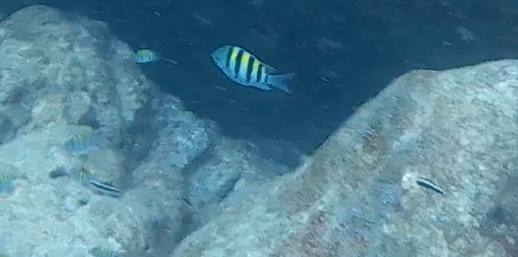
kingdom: Animalia
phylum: Chordata
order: Perciformes
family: Pomacentridae
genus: Abudefduf
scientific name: Abudefduf saxatilis
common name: Sergeant major
